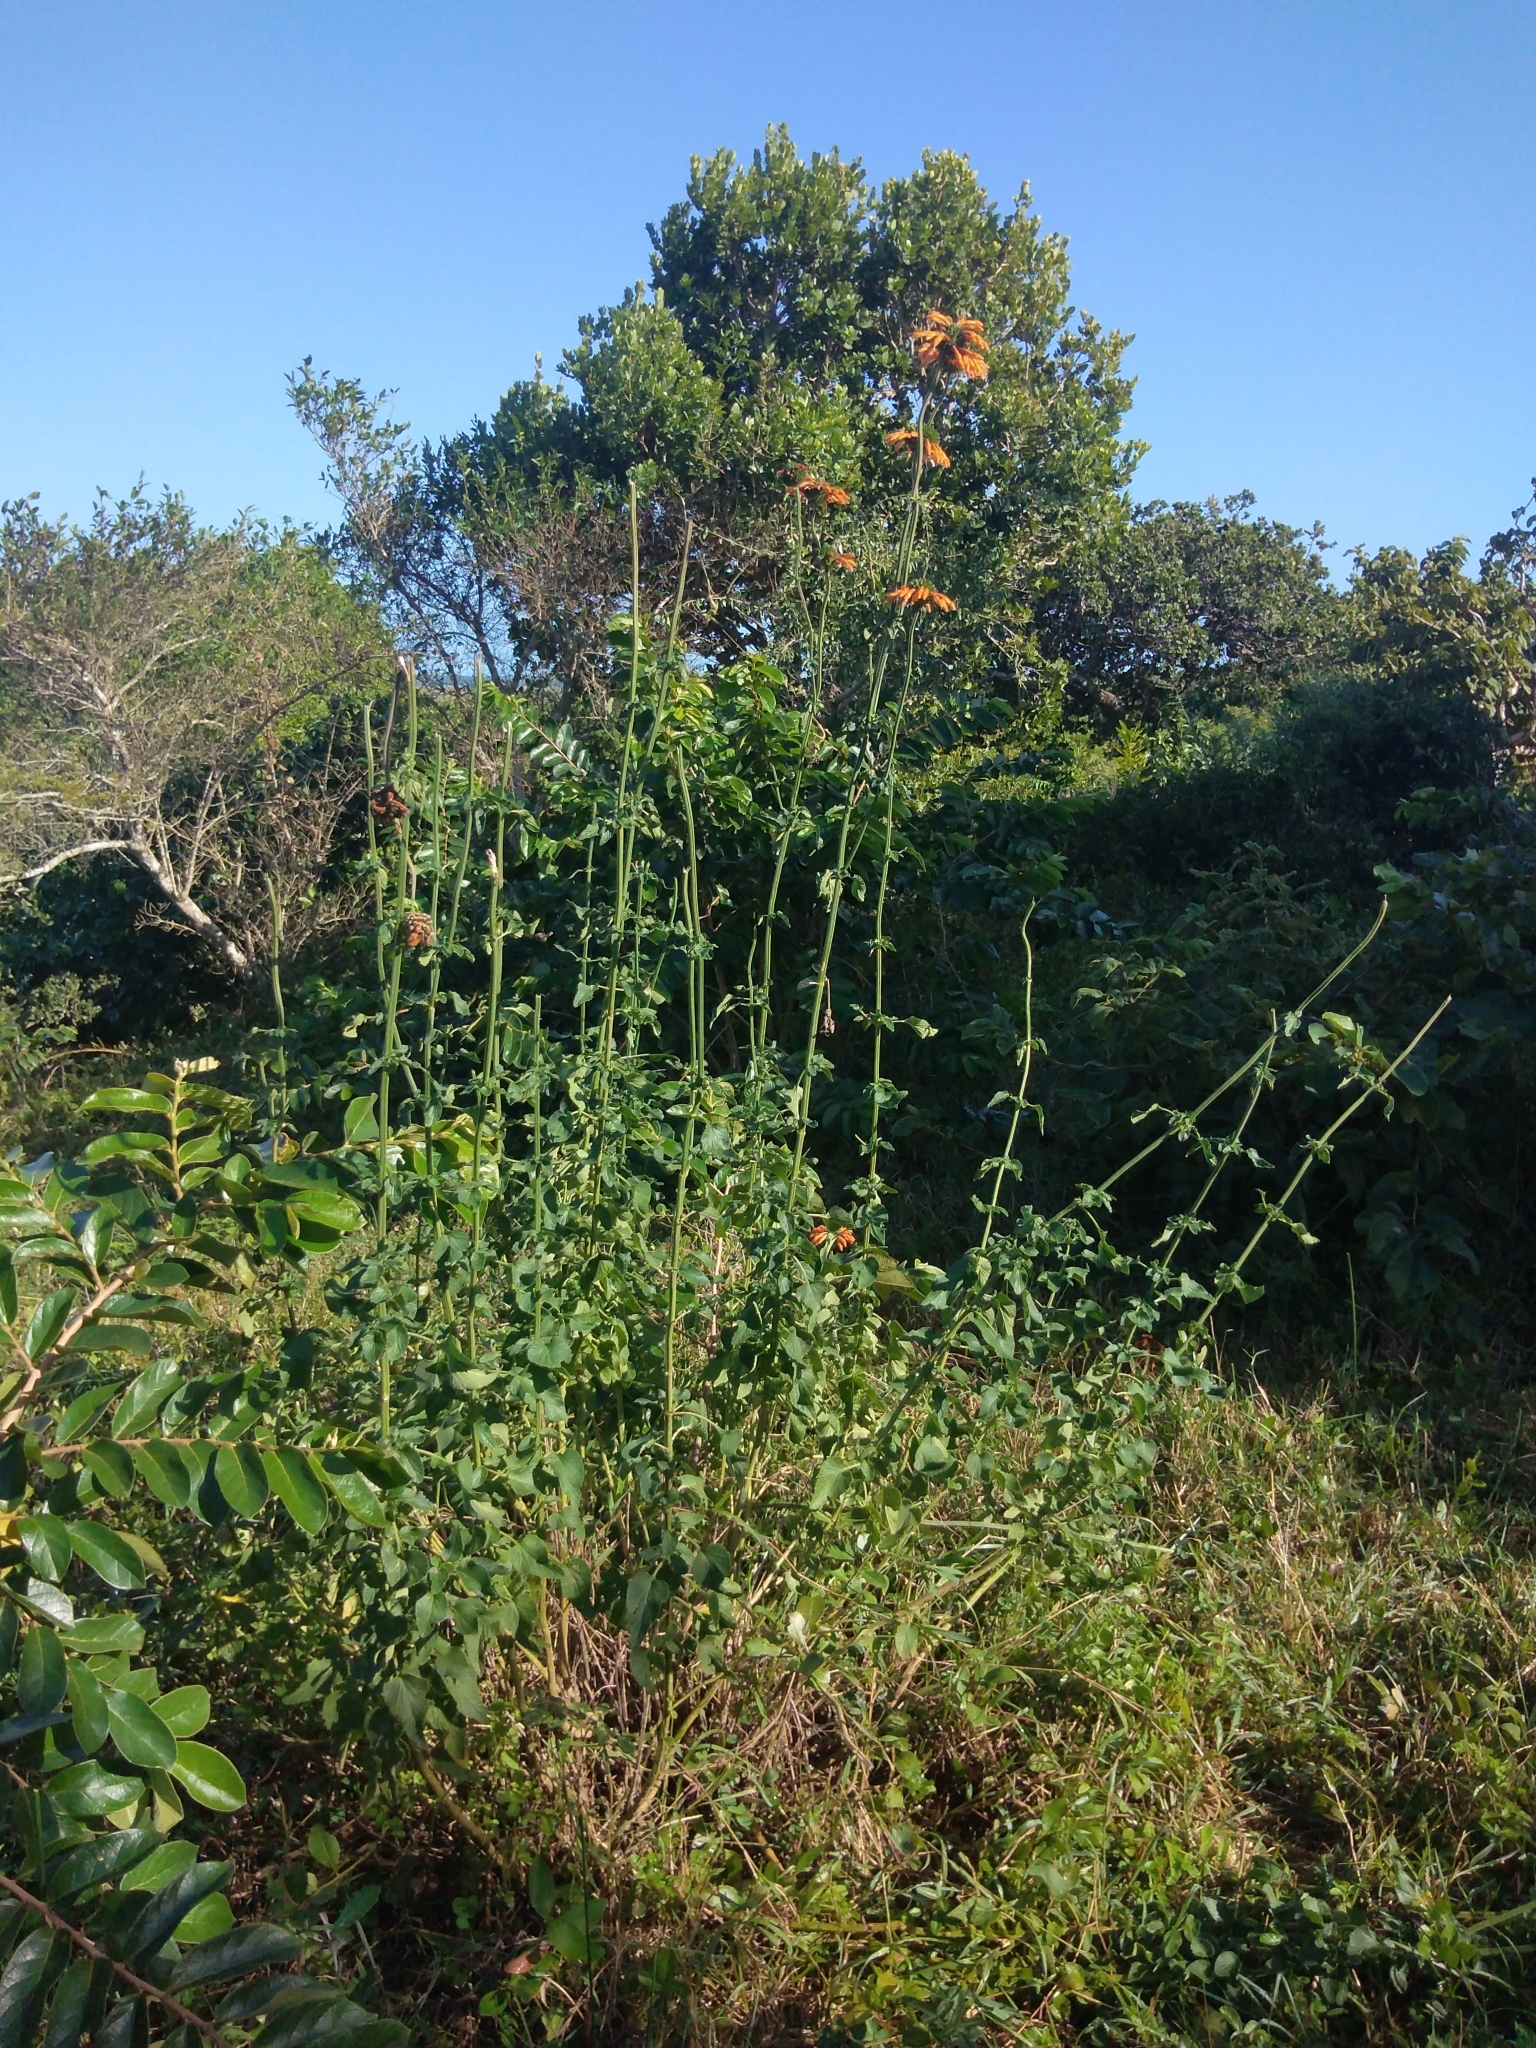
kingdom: Plantae
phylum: Tracheophyta
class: Magnoliopsida
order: Lamiales
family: Lamiaceae
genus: Leonotis
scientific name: Leonotis ocymifolia
